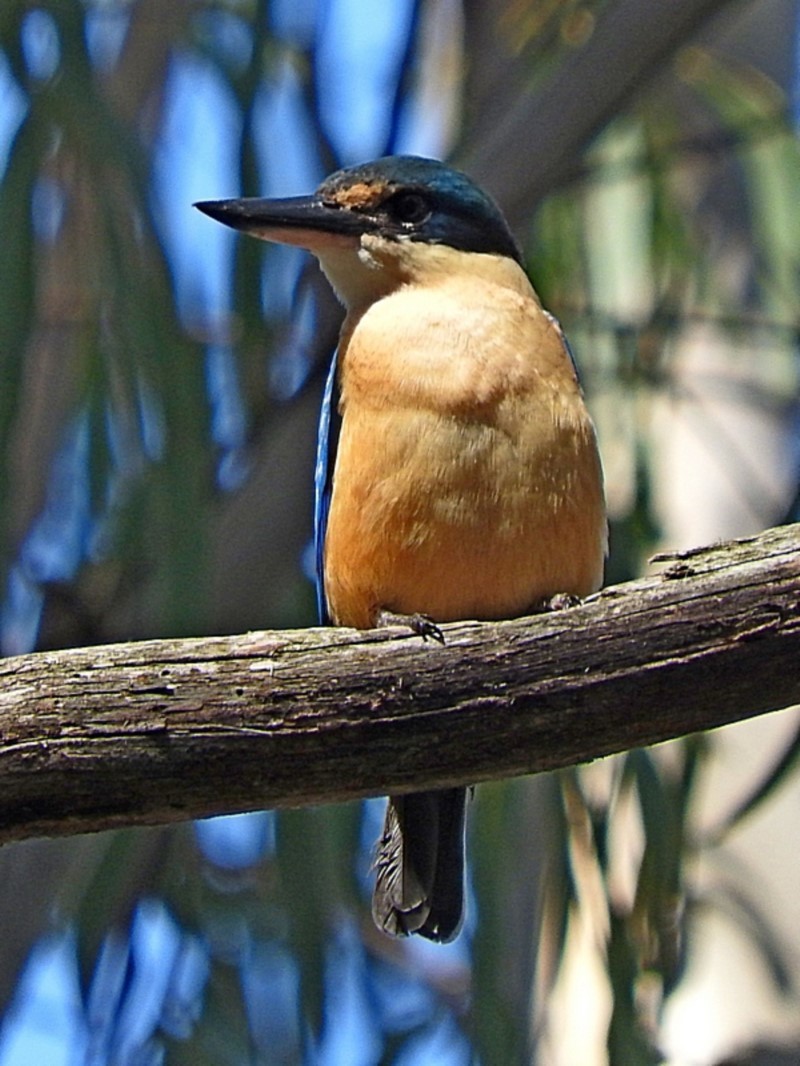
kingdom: Animalia
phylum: Chordata
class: Aves
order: Coraciiformes
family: Alcedinidae
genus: Todiramphus
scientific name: Todiramphus sanctus
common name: Sacred kingfisher
